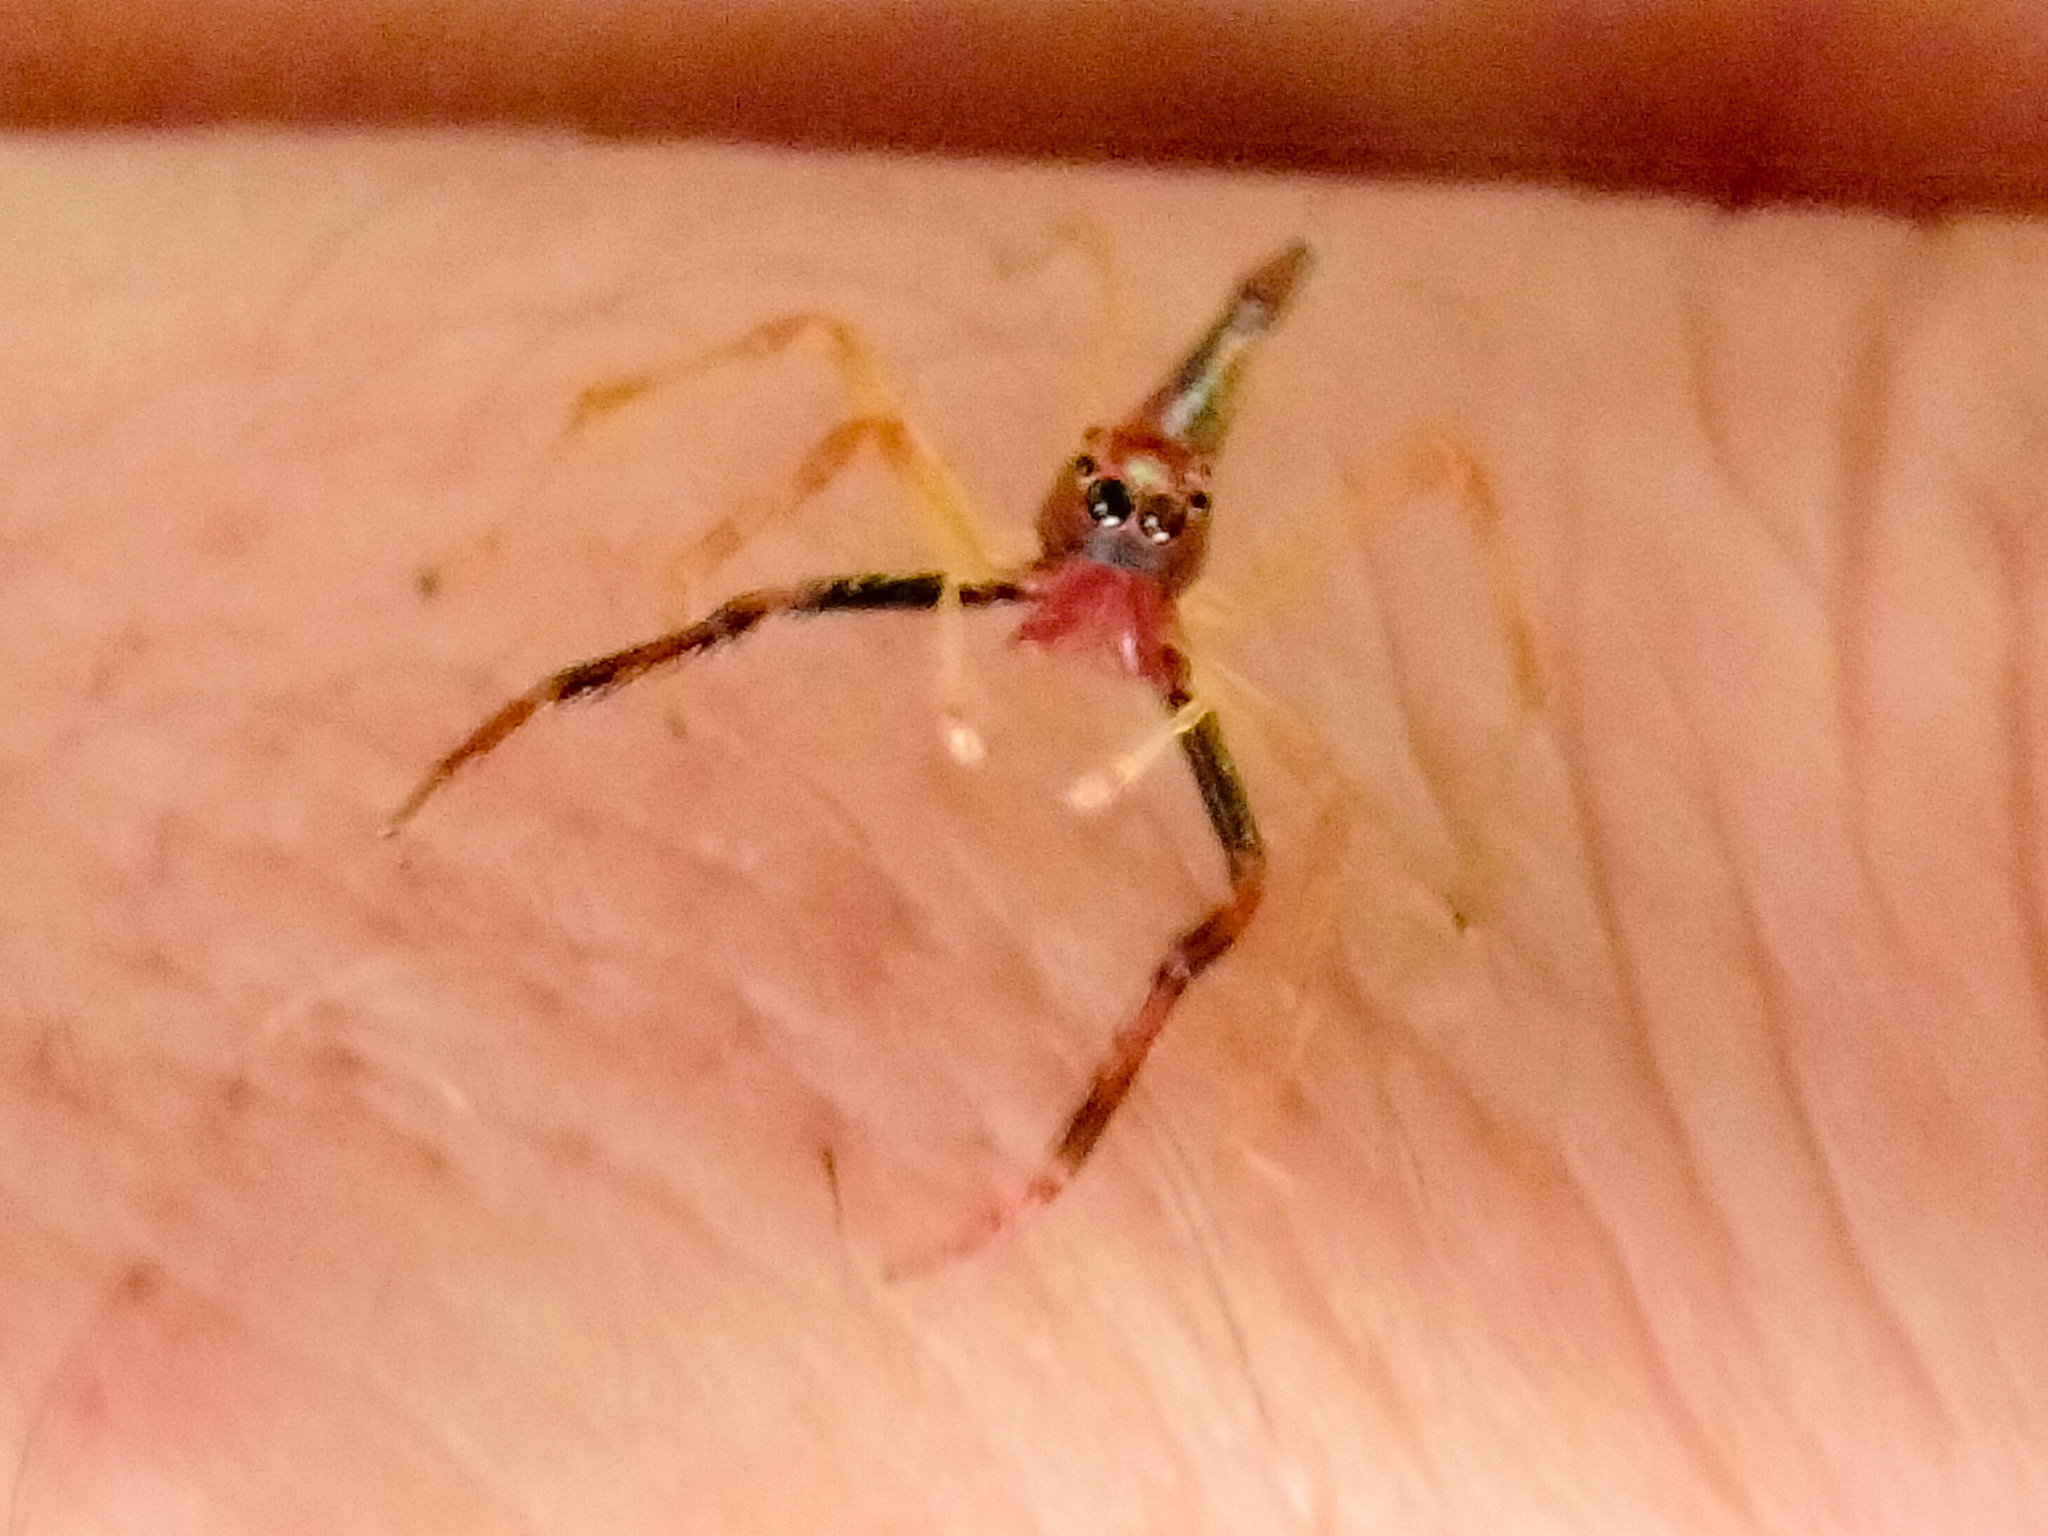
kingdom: Animalia
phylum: Arthropoda
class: Arachnida
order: Araneae
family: Salticidae
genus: Viciria
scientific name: Viciria pavesii
